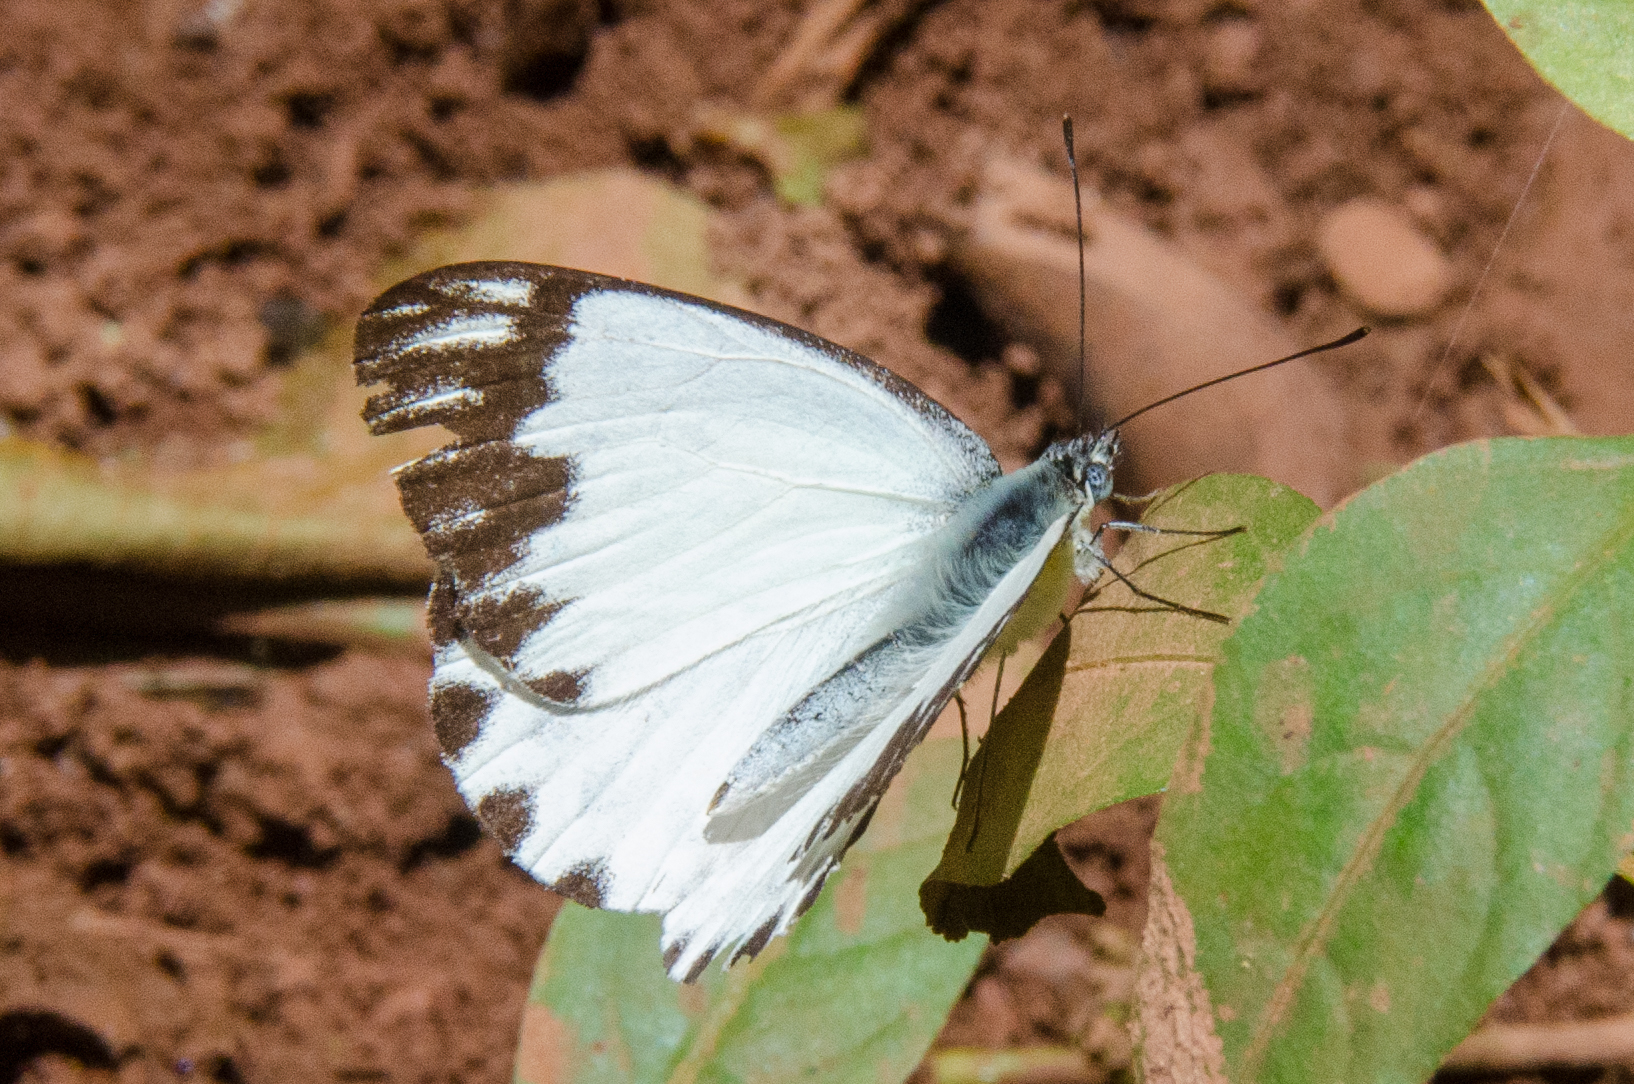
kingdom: Animalia
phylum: Arthropoda
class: Insecta
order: Lepidoptera
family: Pieridae
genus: Belenois
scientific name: Belenois theora
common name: Forest caper white
